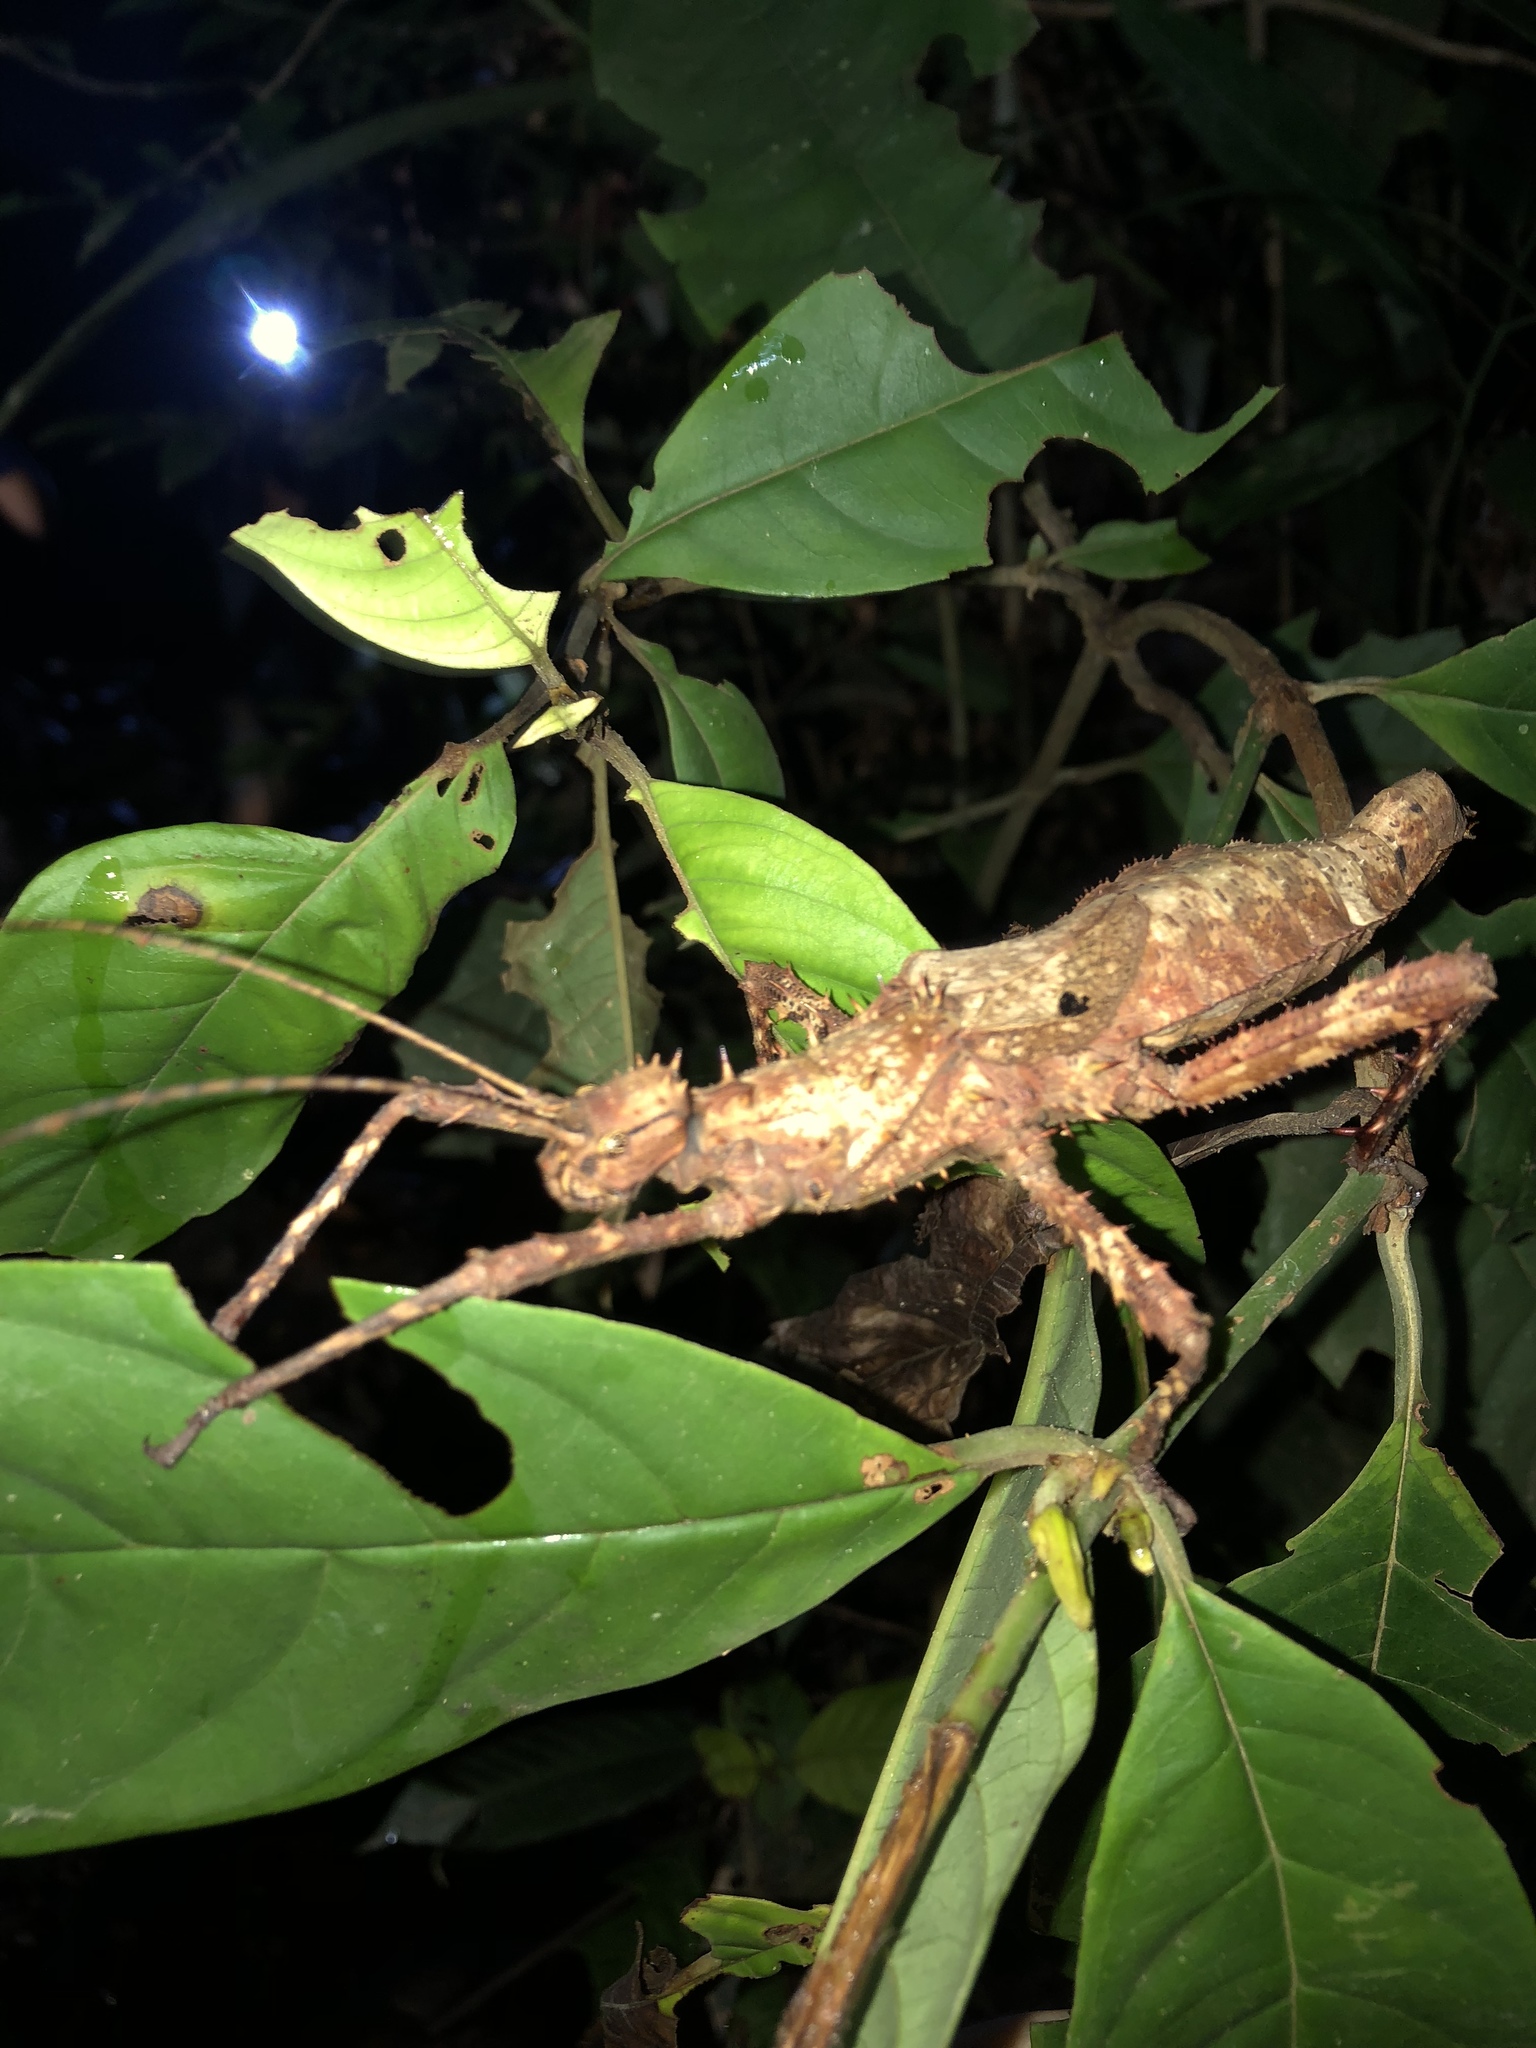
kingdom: Animalia
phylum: Arthropoda
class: Insecta
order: Phasmida
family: Heteropterygidae
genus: Haaniella
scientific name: Haaniella echinata
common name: Prickly haaniella
